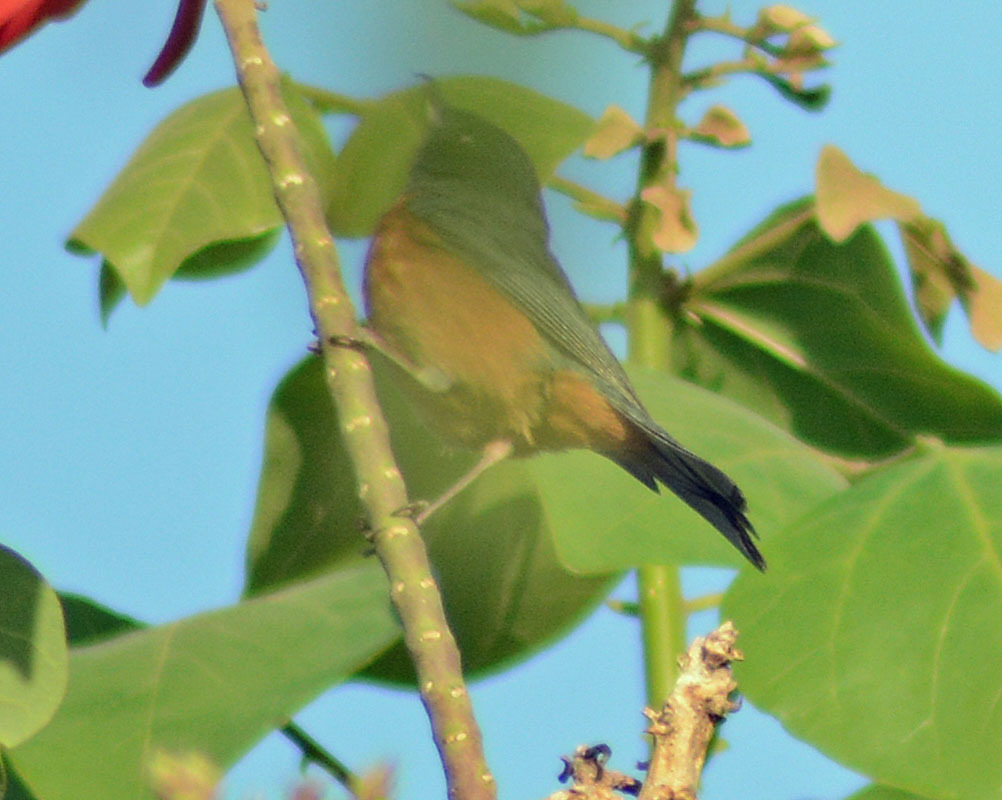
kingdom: Animalia
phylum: Chordata
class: Aves
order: Passeriformes
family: Thraupidae
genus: Diglossa
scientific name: Diglossa baritula
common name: Cinnamon-bellied flowerpiercer
